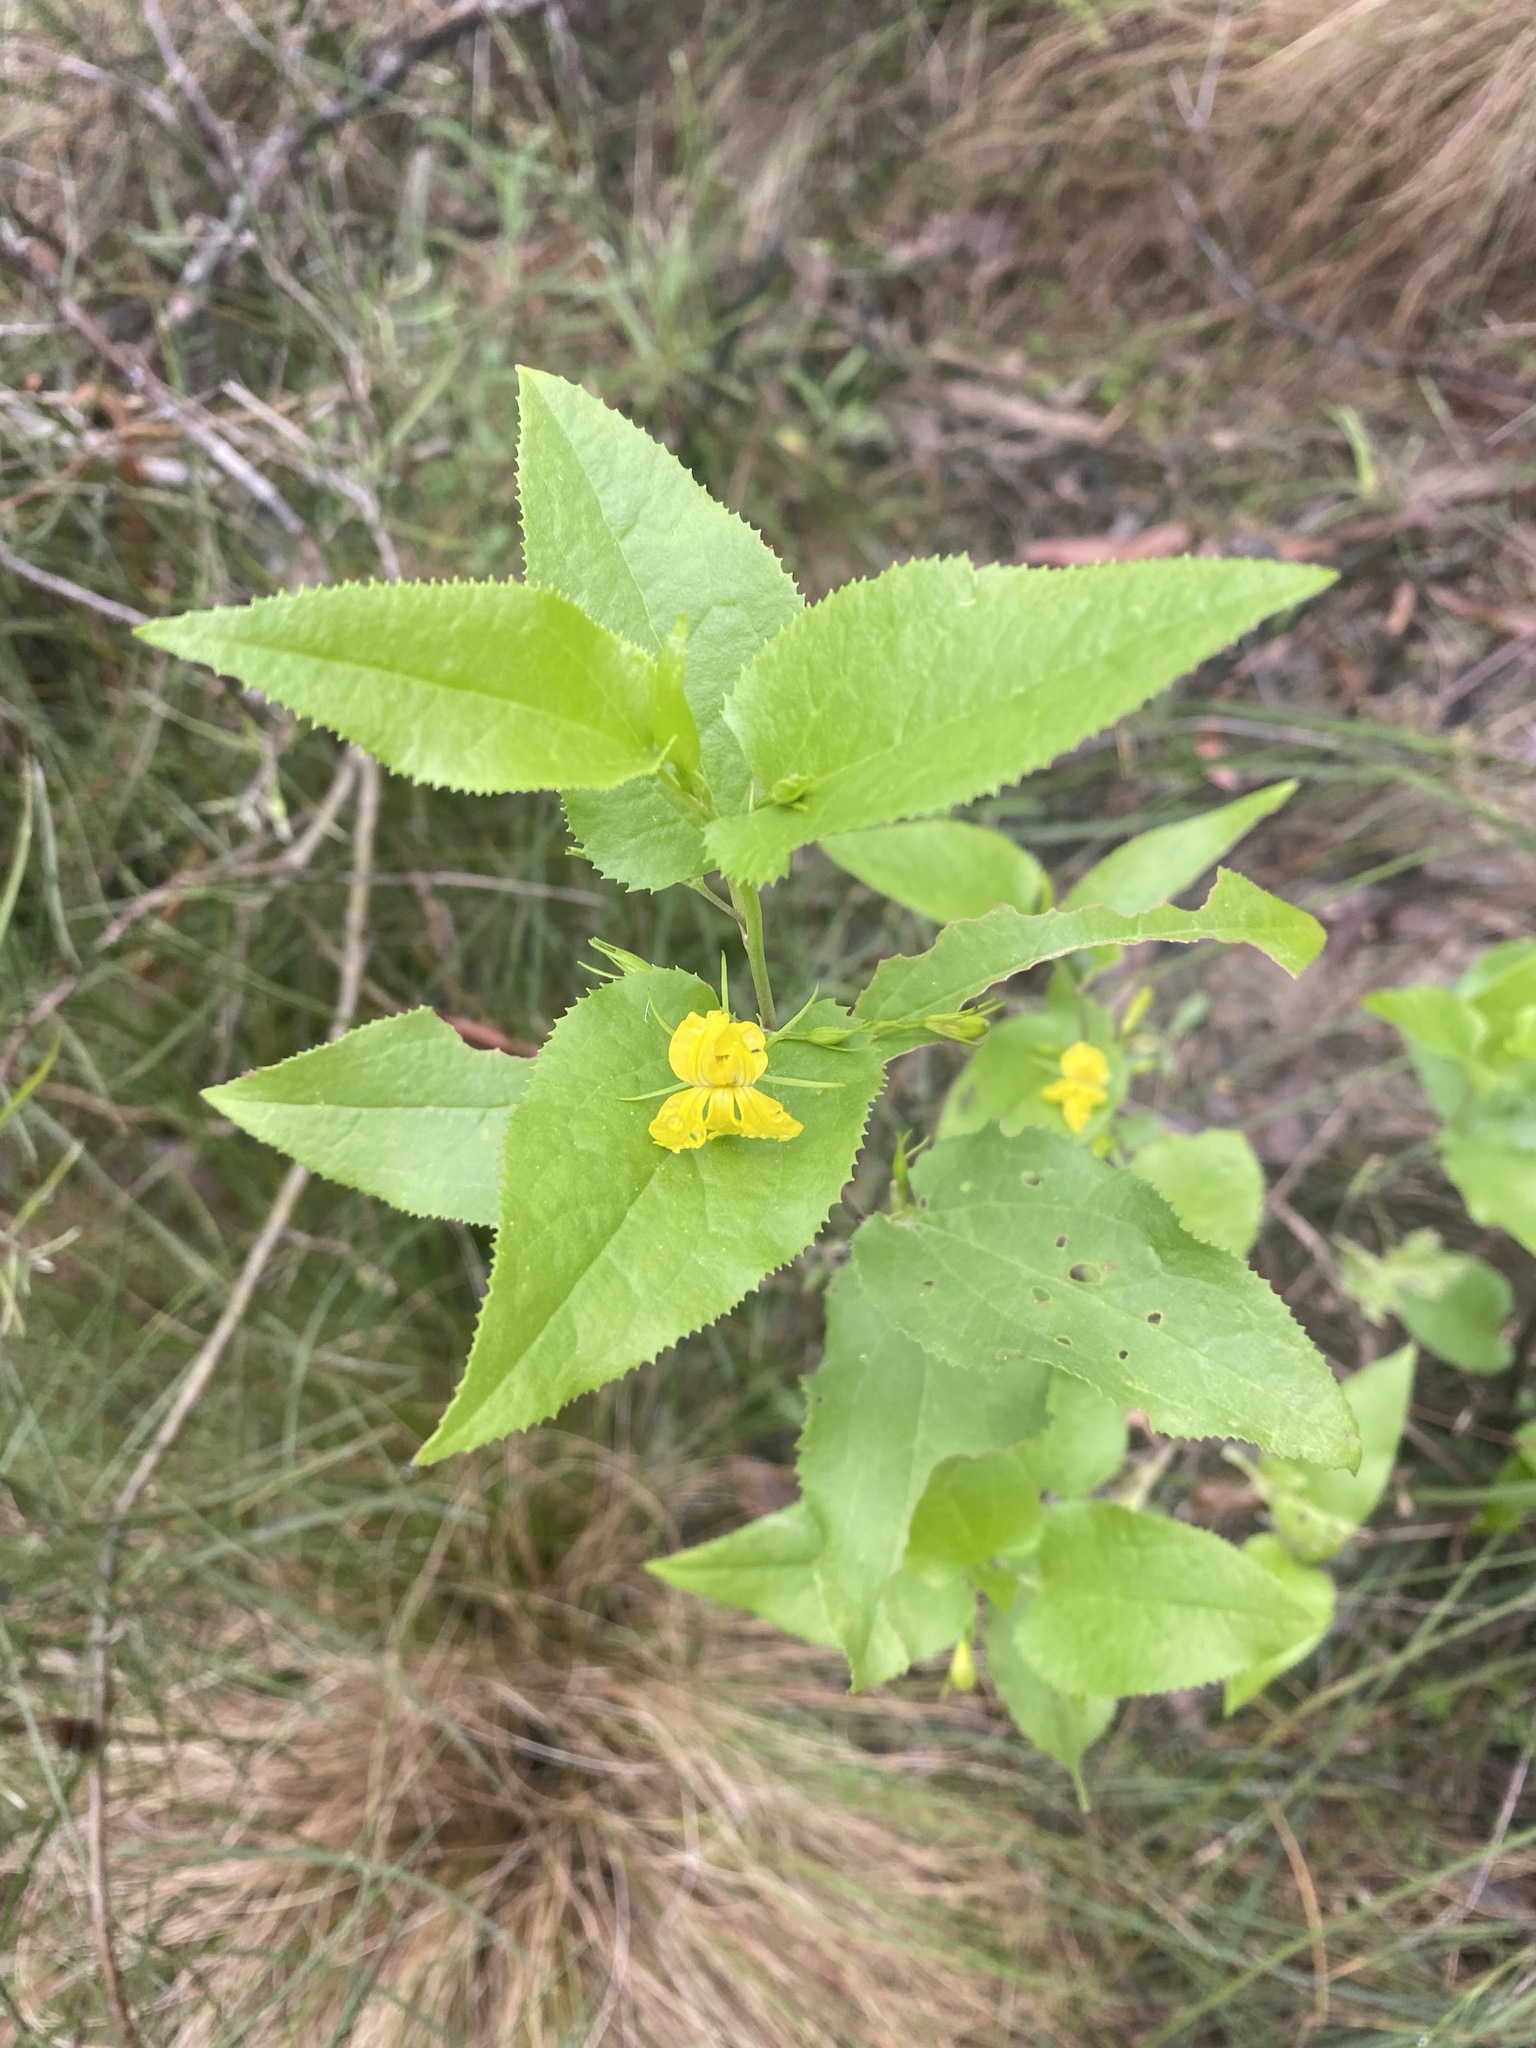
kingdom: Plantae
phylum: Tracheophyta
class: Magnoliopsida
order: Asterales
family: Goodeniaceae
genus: Goodenia
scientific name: Goodenia ovata
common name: Hop goodenia
